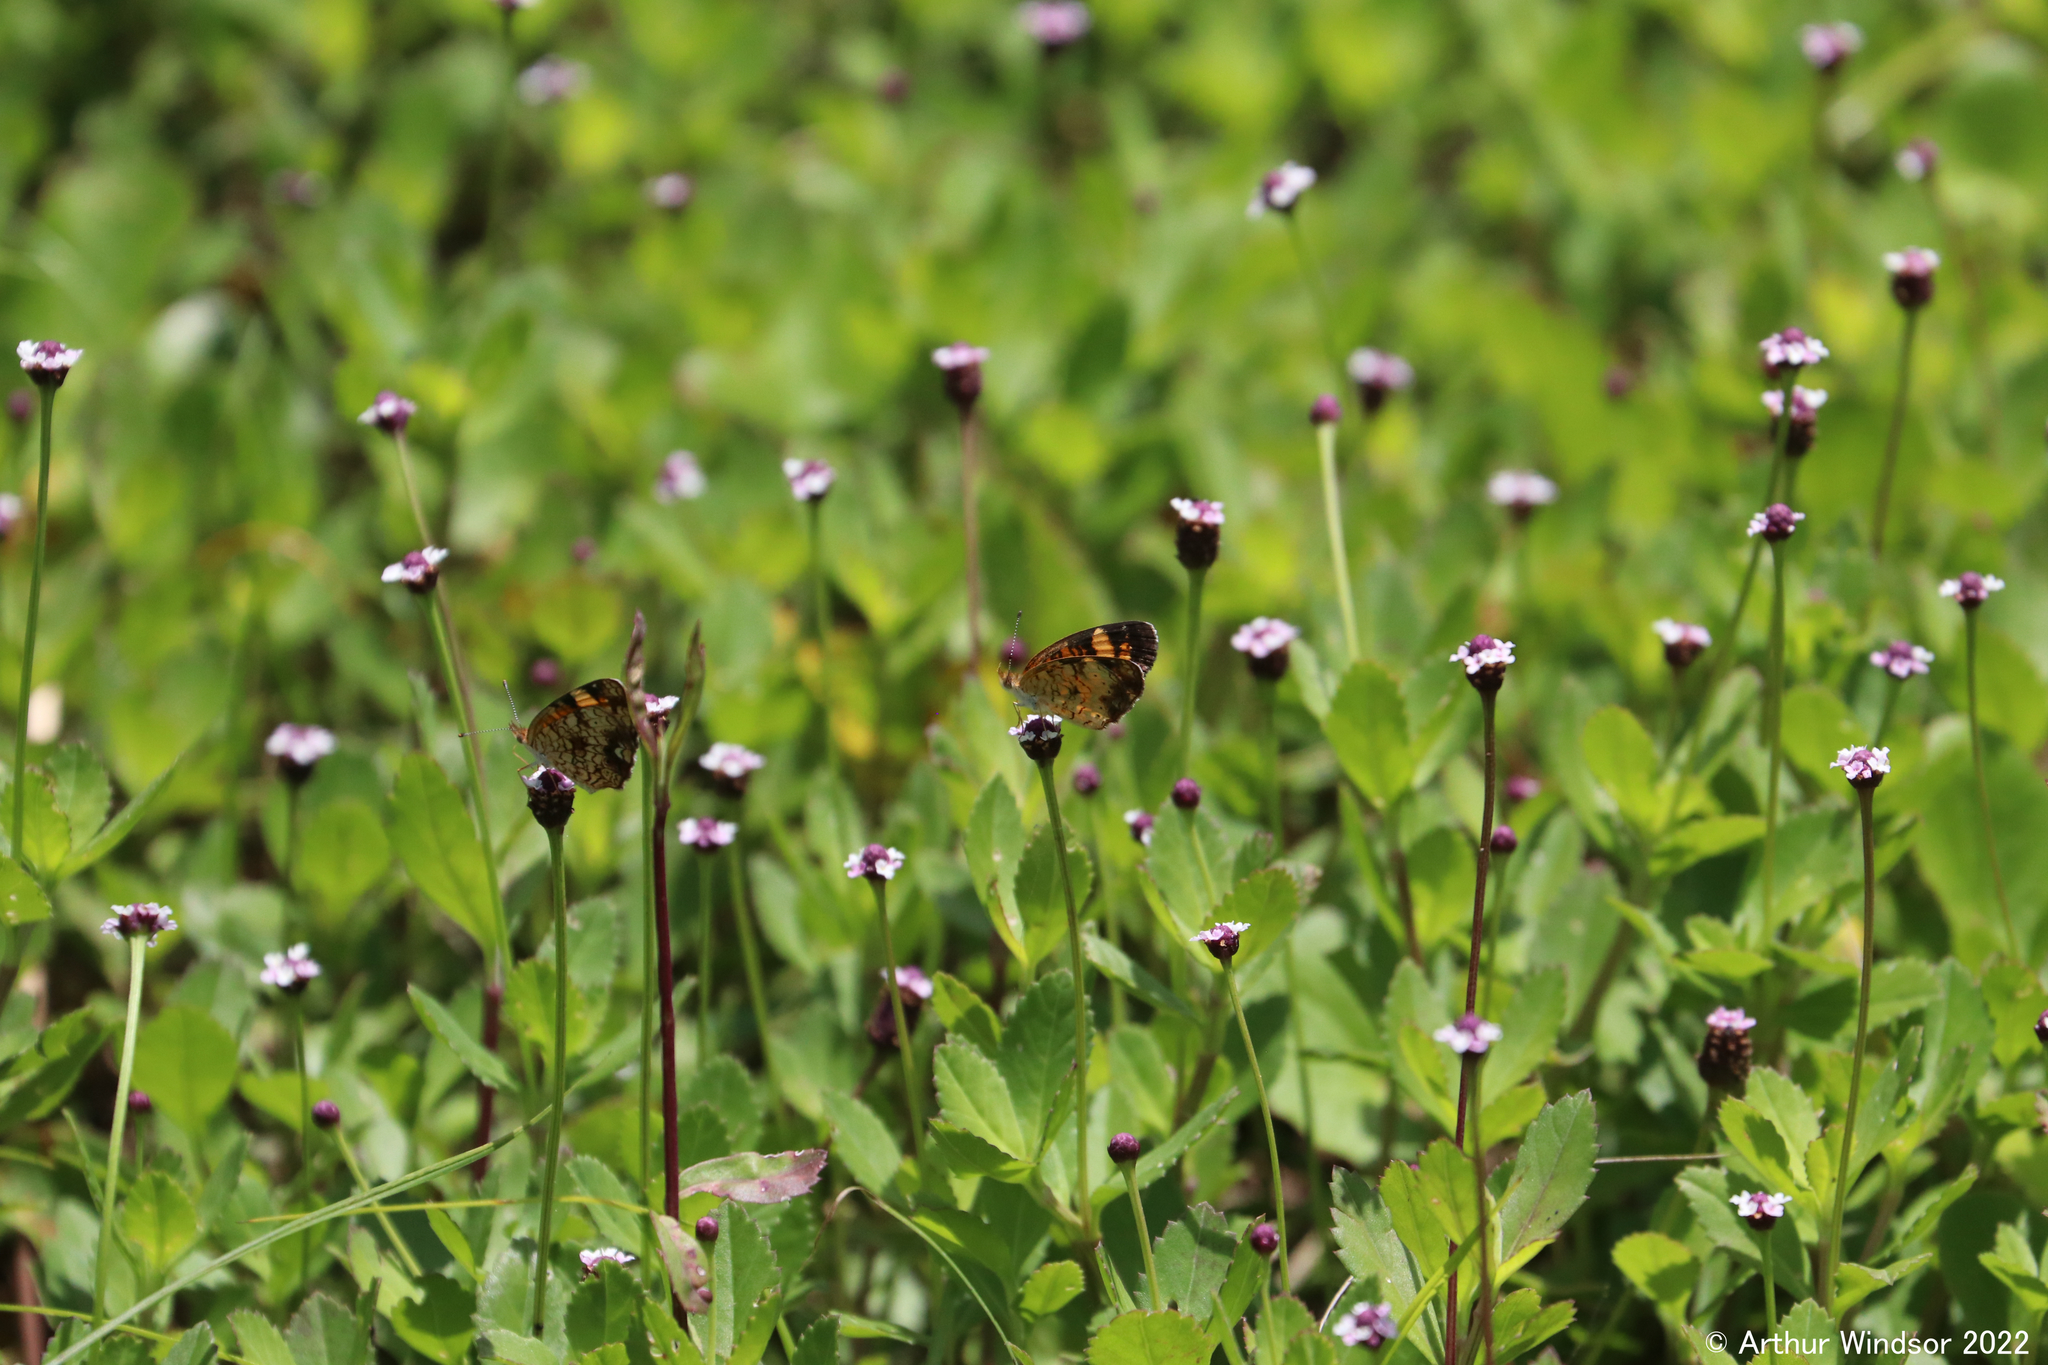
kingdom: Animalia
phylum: Arthropoda
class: Insecta
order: Lepidoptera
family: Nymphalidae
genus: Phyciodes
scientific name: Phyciodes tharos
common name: Pearl crescent
